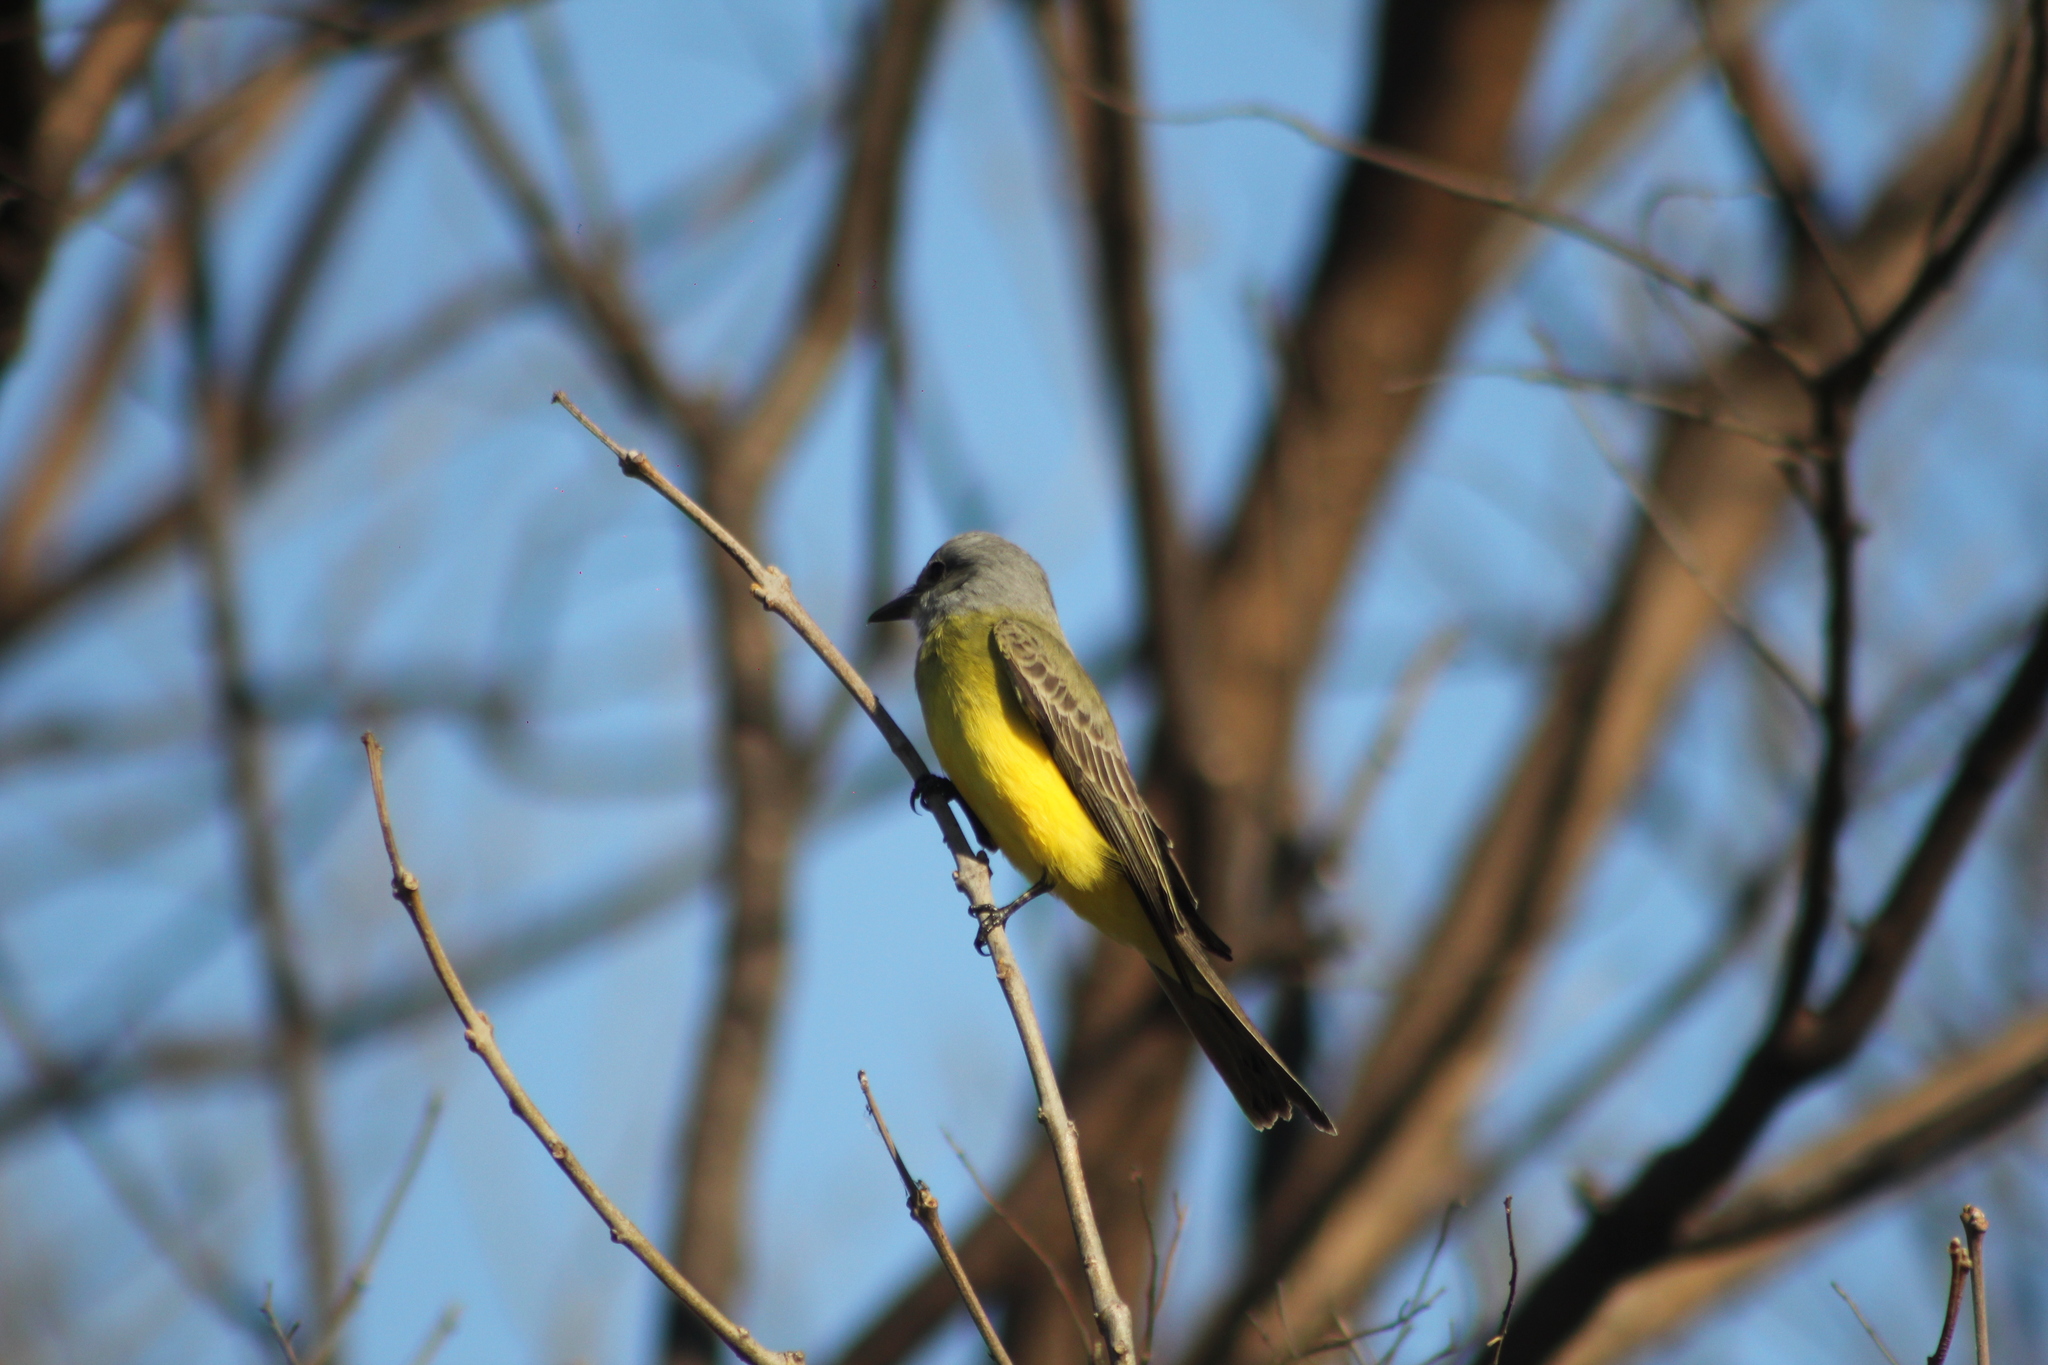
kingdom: Animalia
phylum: Chordata
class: Aves
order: Passeriformes
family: Tyrannidae
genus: Tyrannus
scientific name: Tyrannus melancholicus
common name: Tropical kingbird
